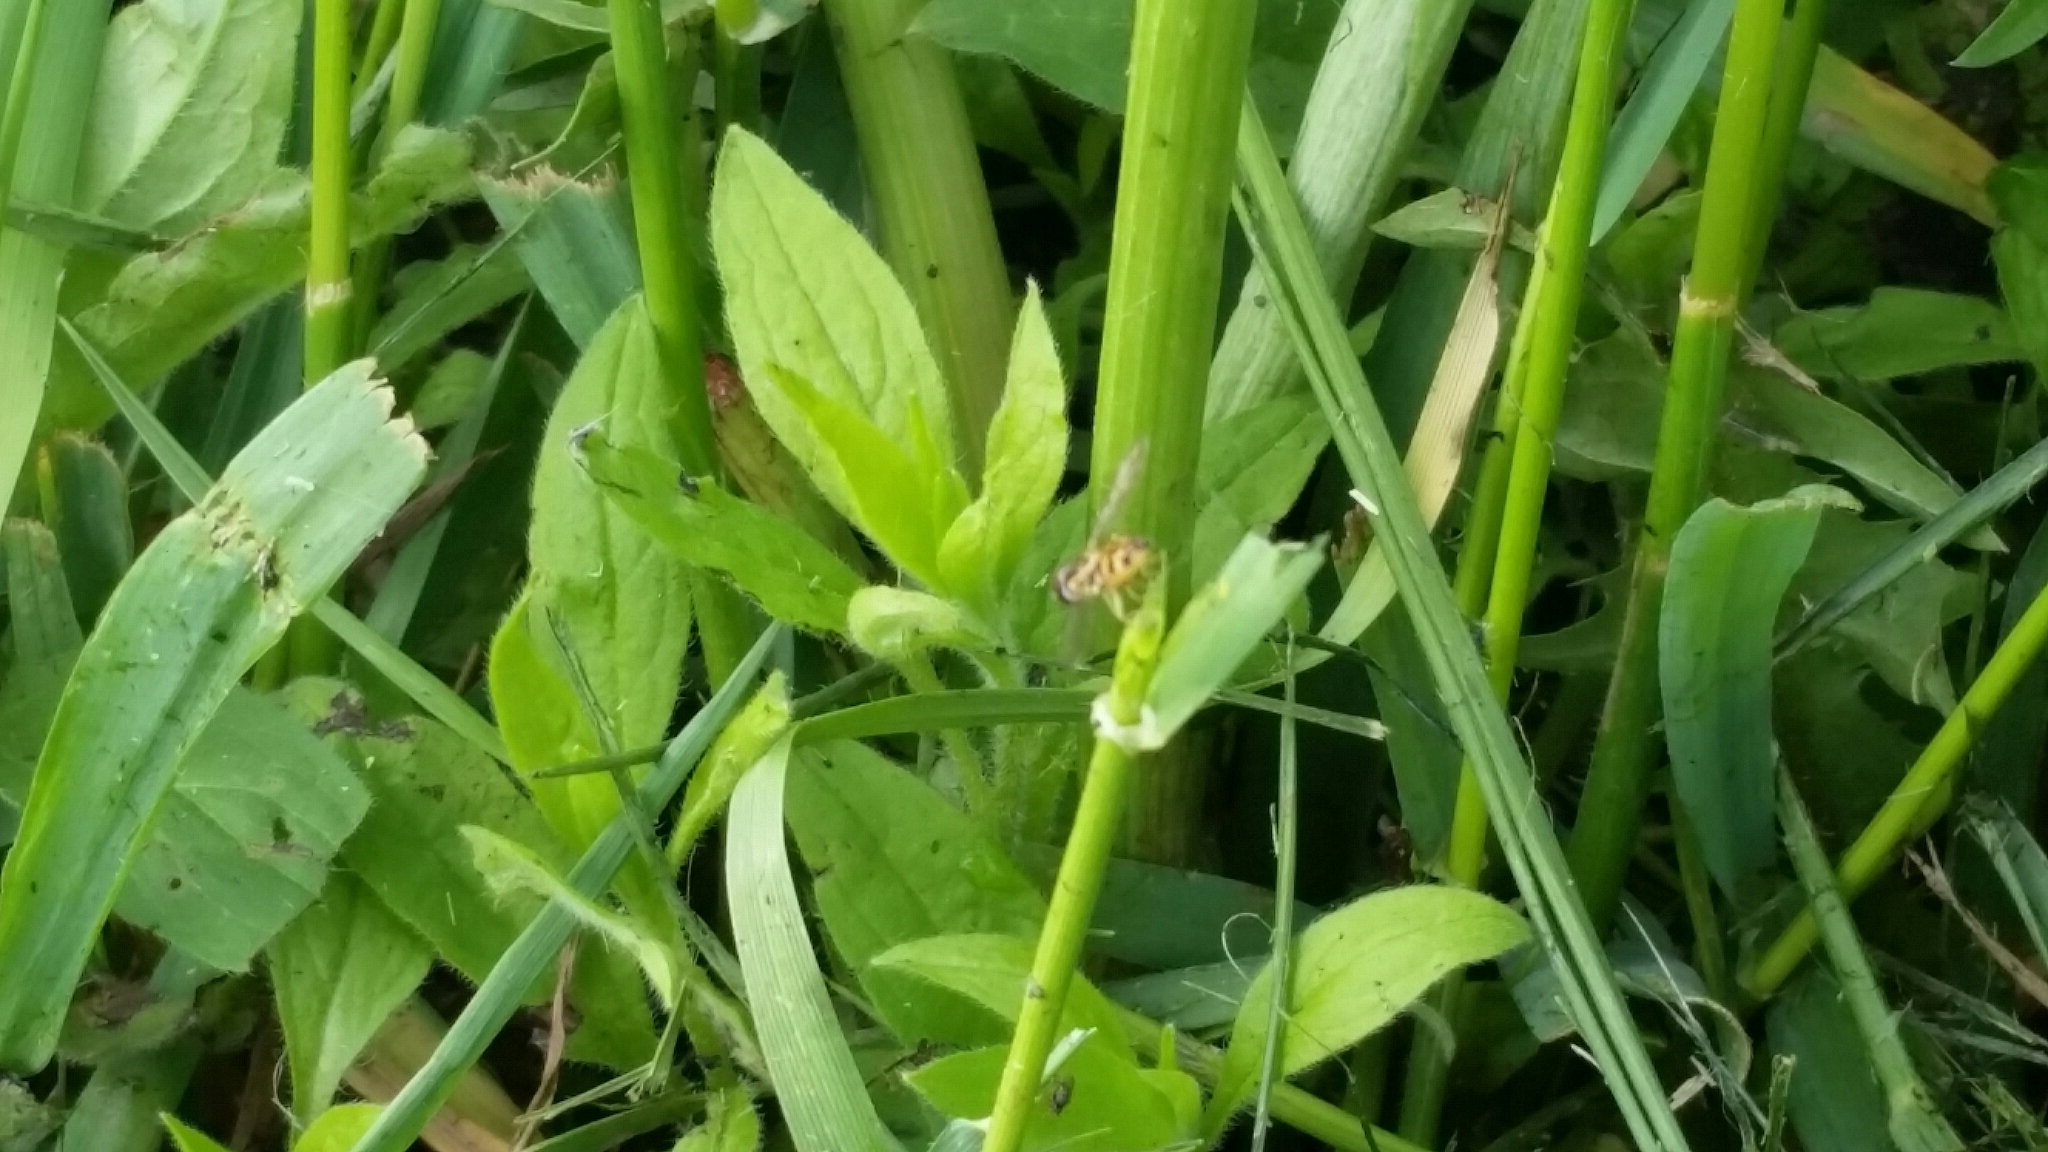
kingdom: Animalia
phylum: Arthropoda
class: Insecta
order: Diptera
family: Syrphidae
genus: Toxomerus
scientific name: Toxomerus geminatus
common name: Eastern calligrapher
